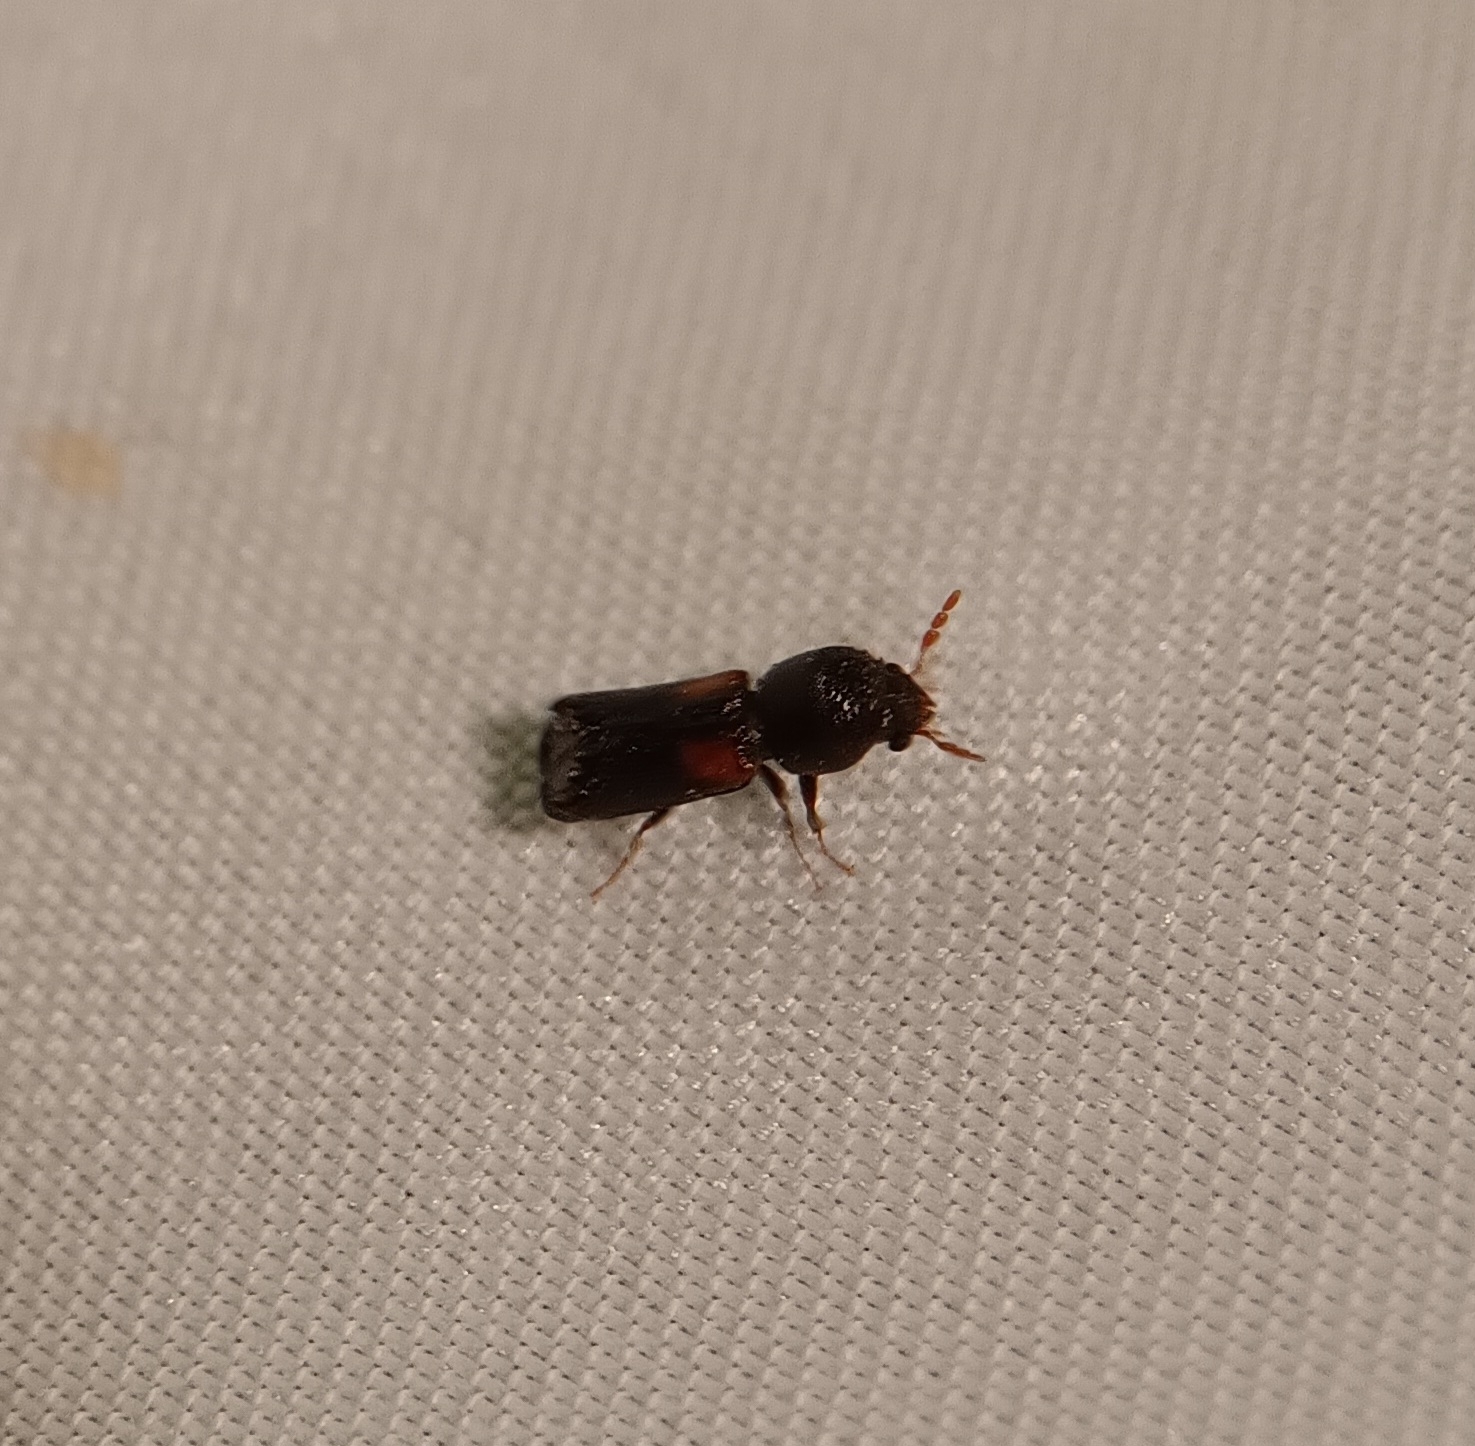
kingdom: Animalia
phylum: Arthropoda
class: Insecta
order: Coleoptera
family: Bostrichidae
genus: Xylobiops
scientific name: Xylobiops basilaris
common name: Red-shouldered bostrichid
